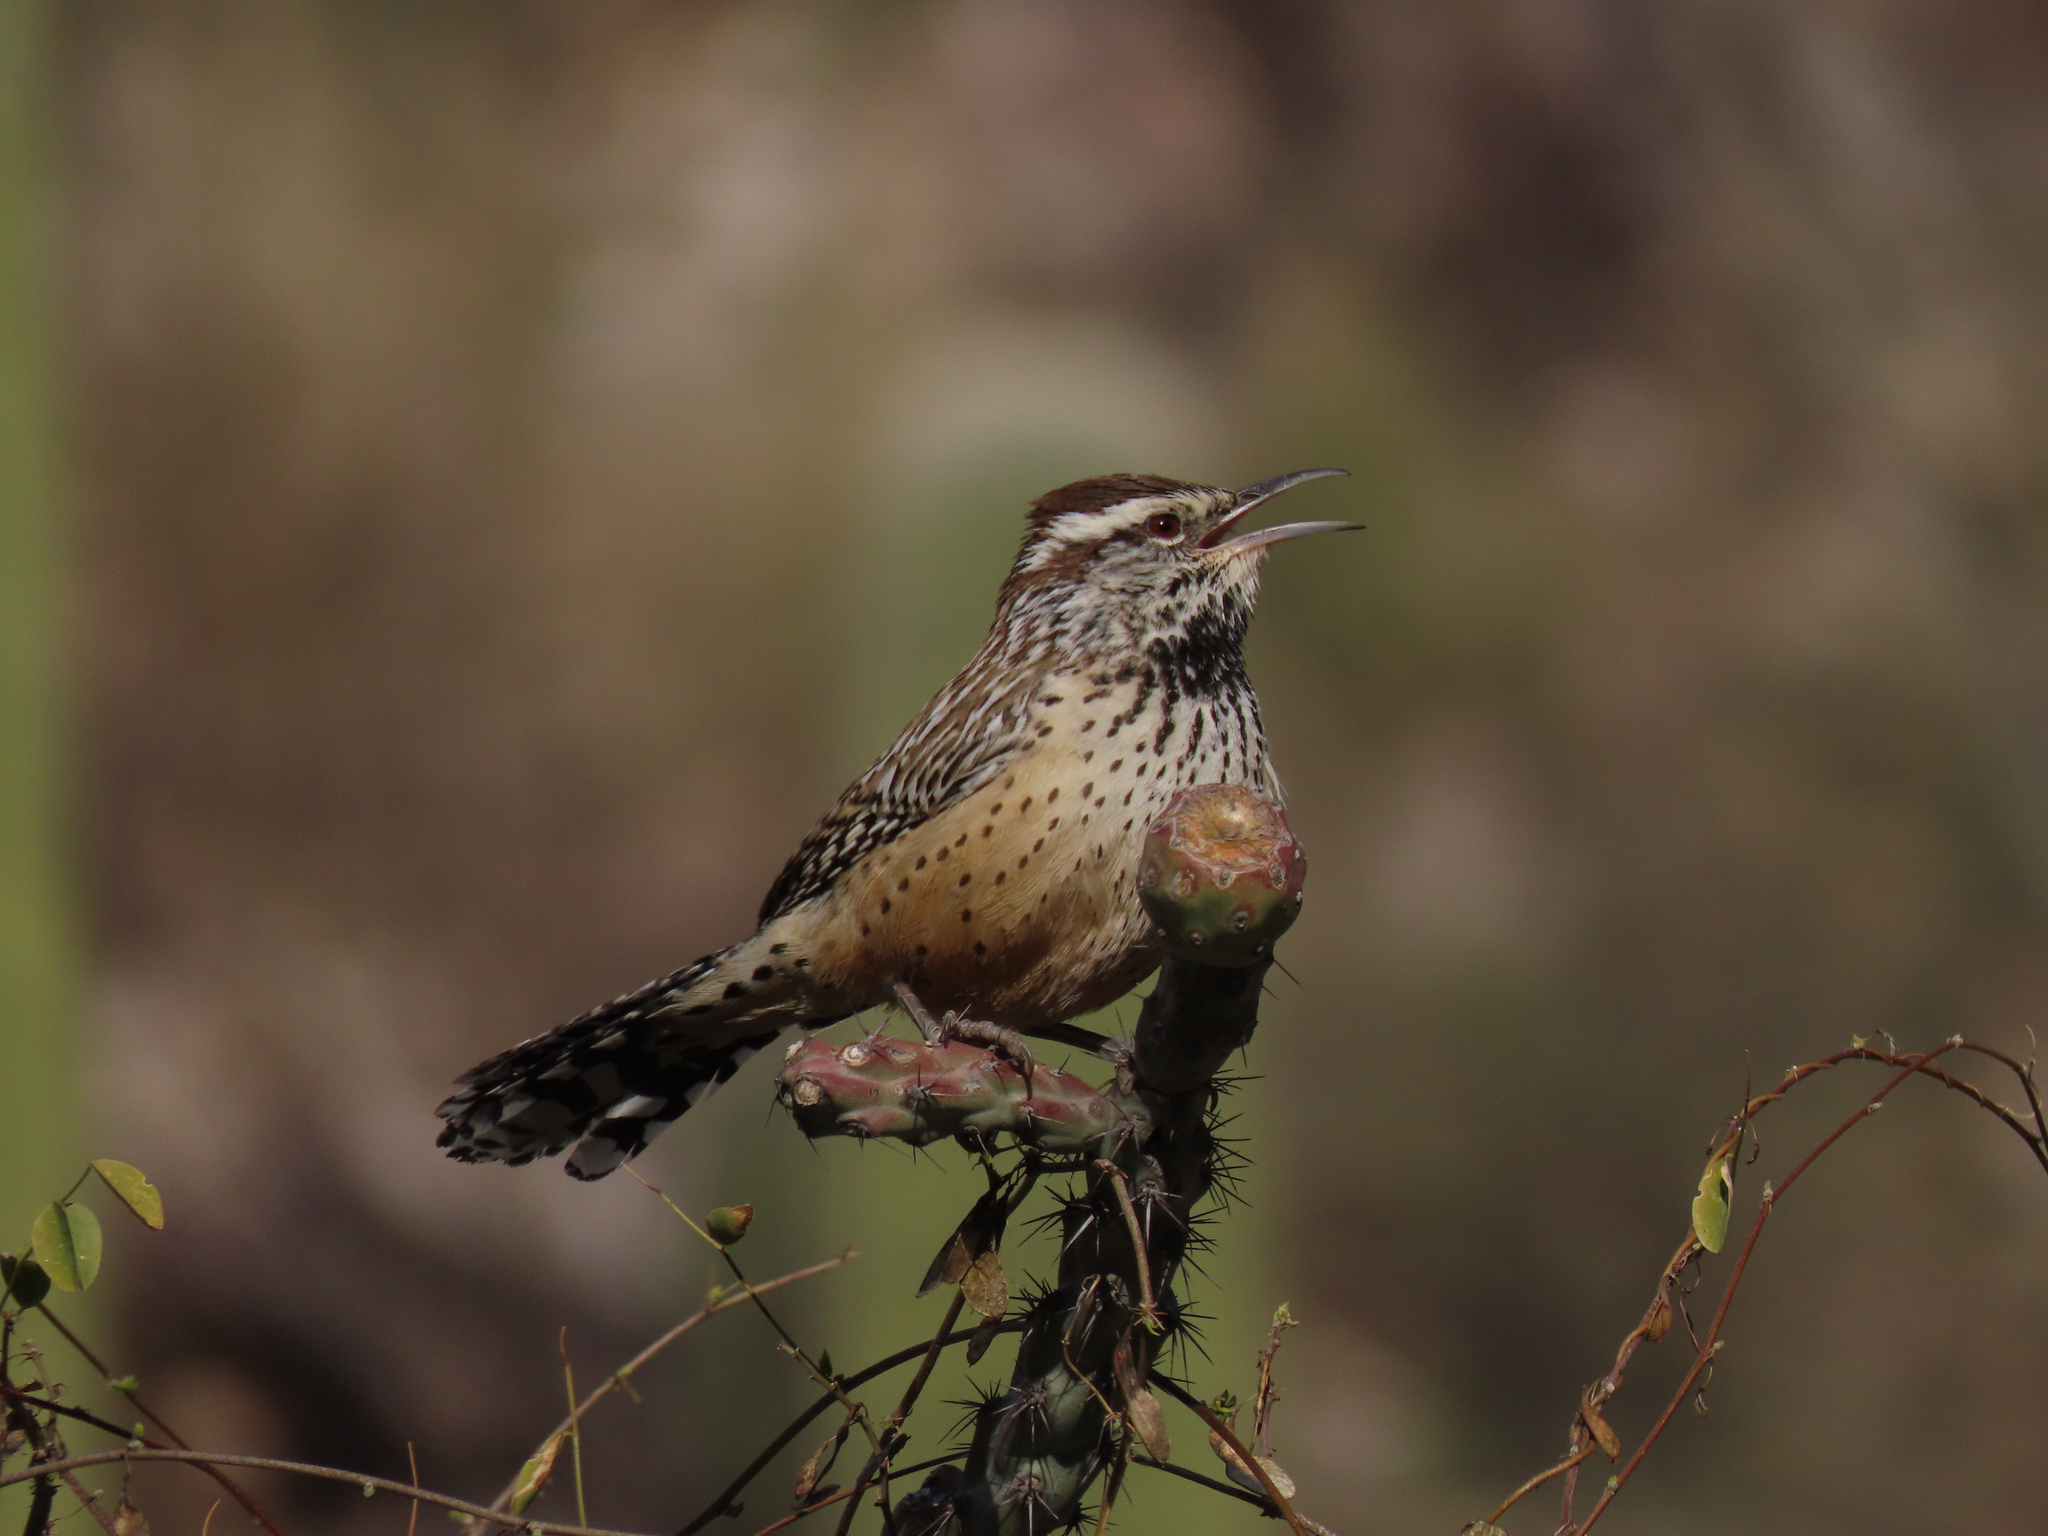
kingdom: Animalia
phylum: Chordata
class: Aves
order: Passeriformes
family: Troglodytidae
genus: Campylorhynchus
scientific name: Campylorhynchus brunneicapillus
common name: Cactus wren
